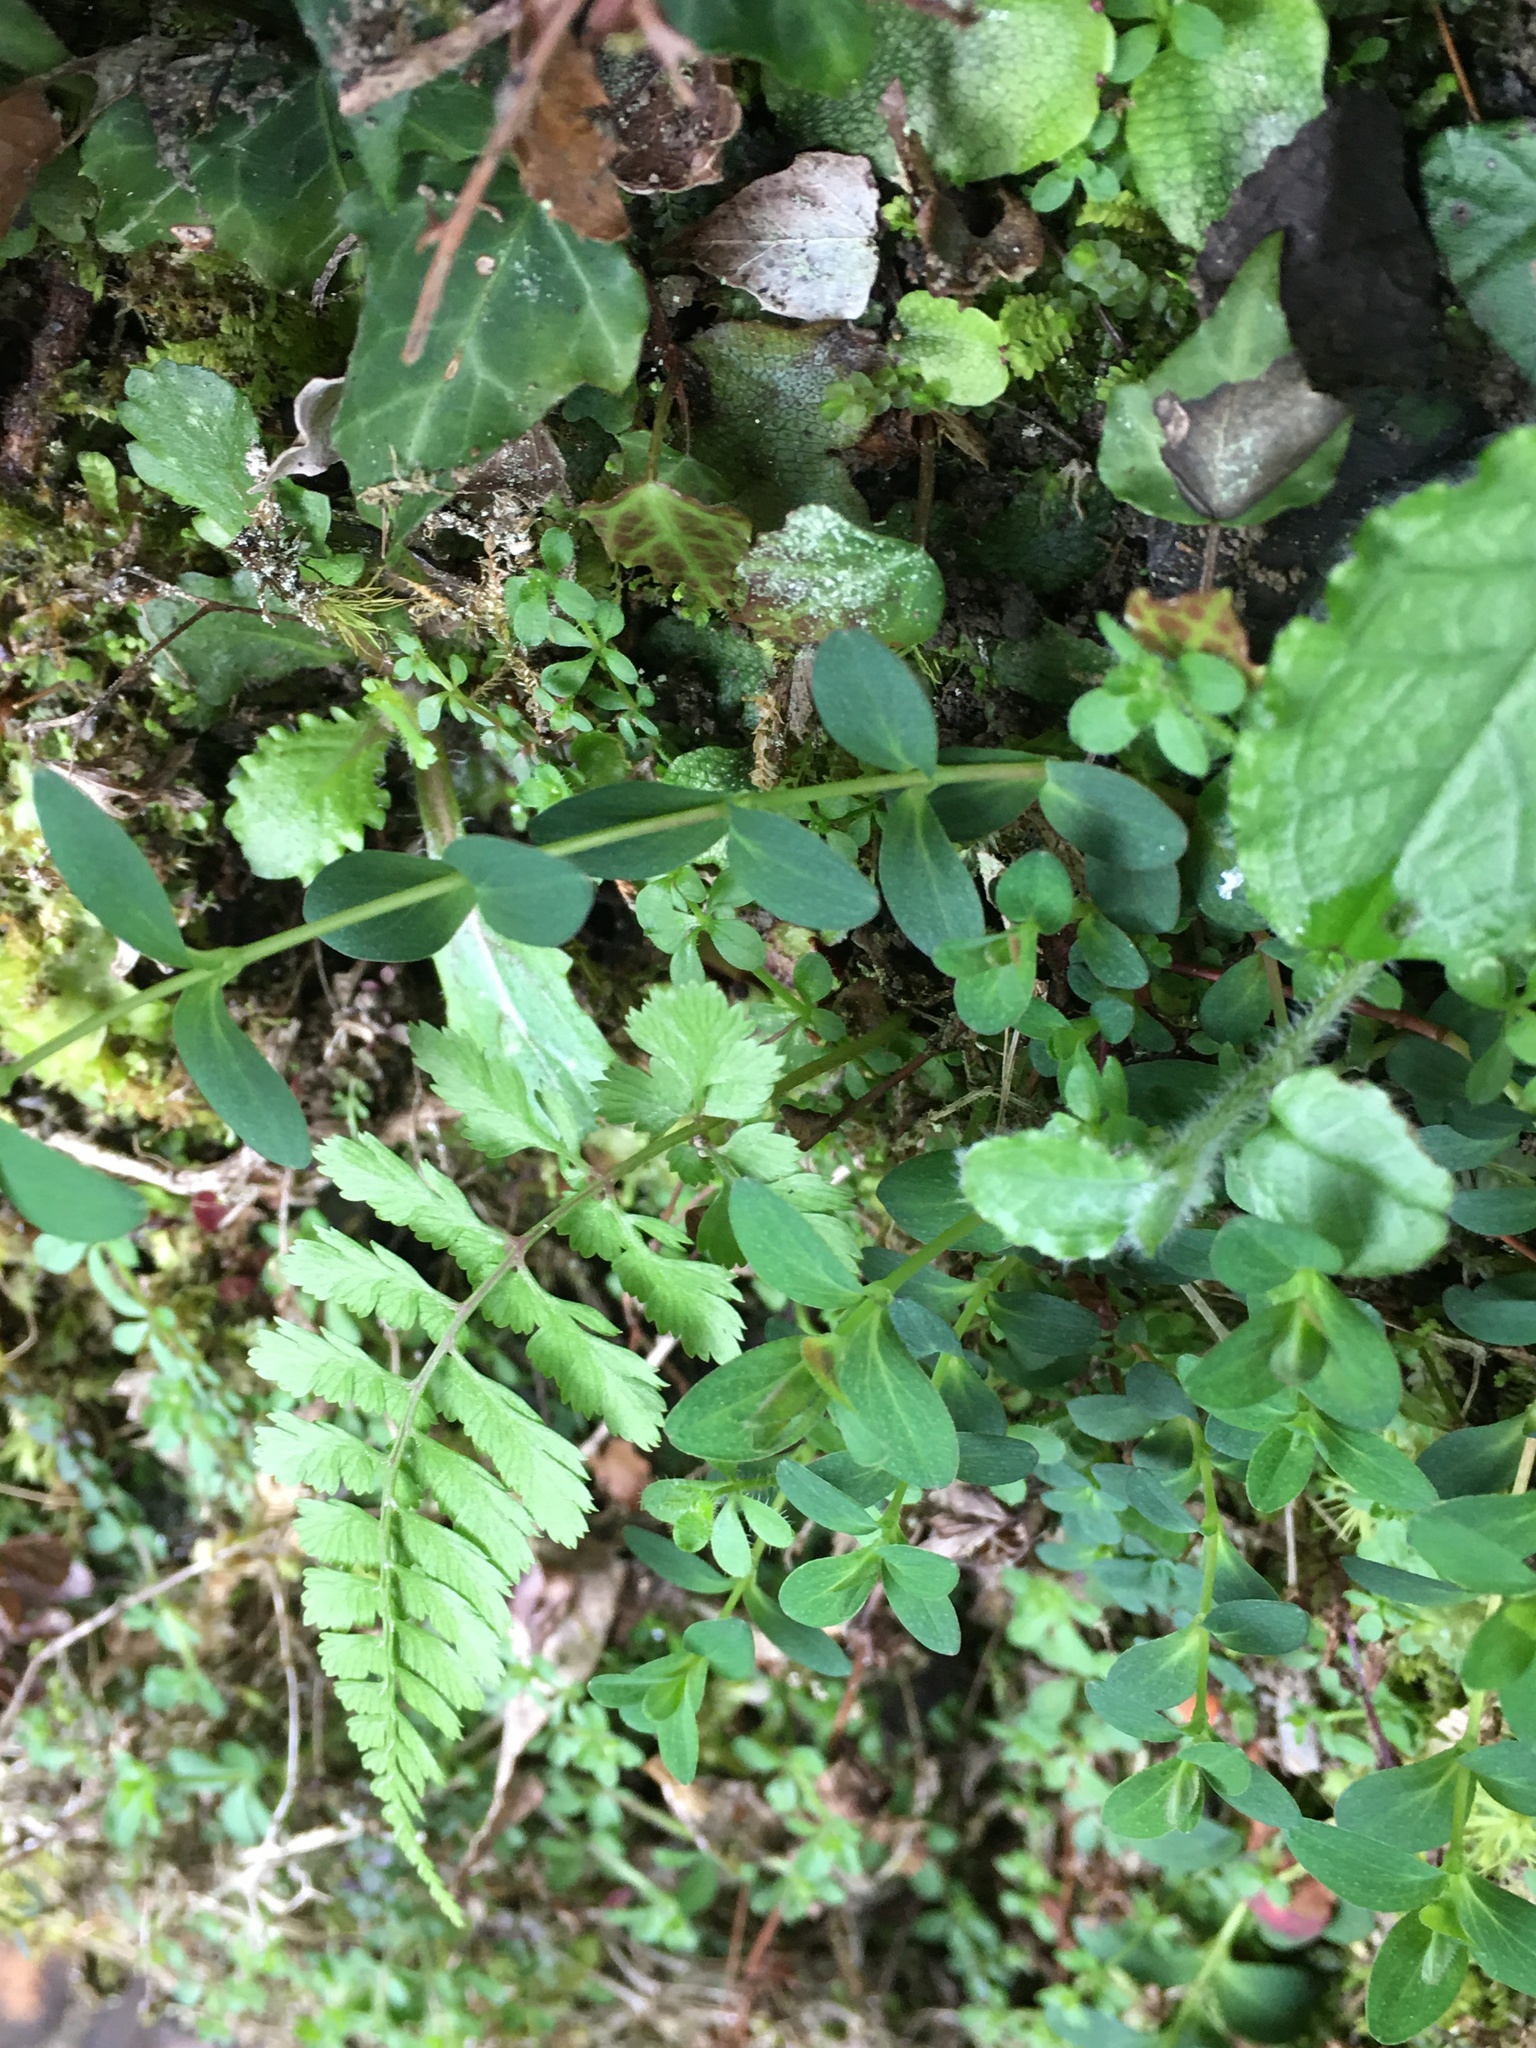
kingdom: Plantae
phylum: Tracheophyta
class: Magnoliopsida
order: Malpighiales
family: Hypericaceae
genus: Hypericum
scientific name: Hypericum taihezanense
